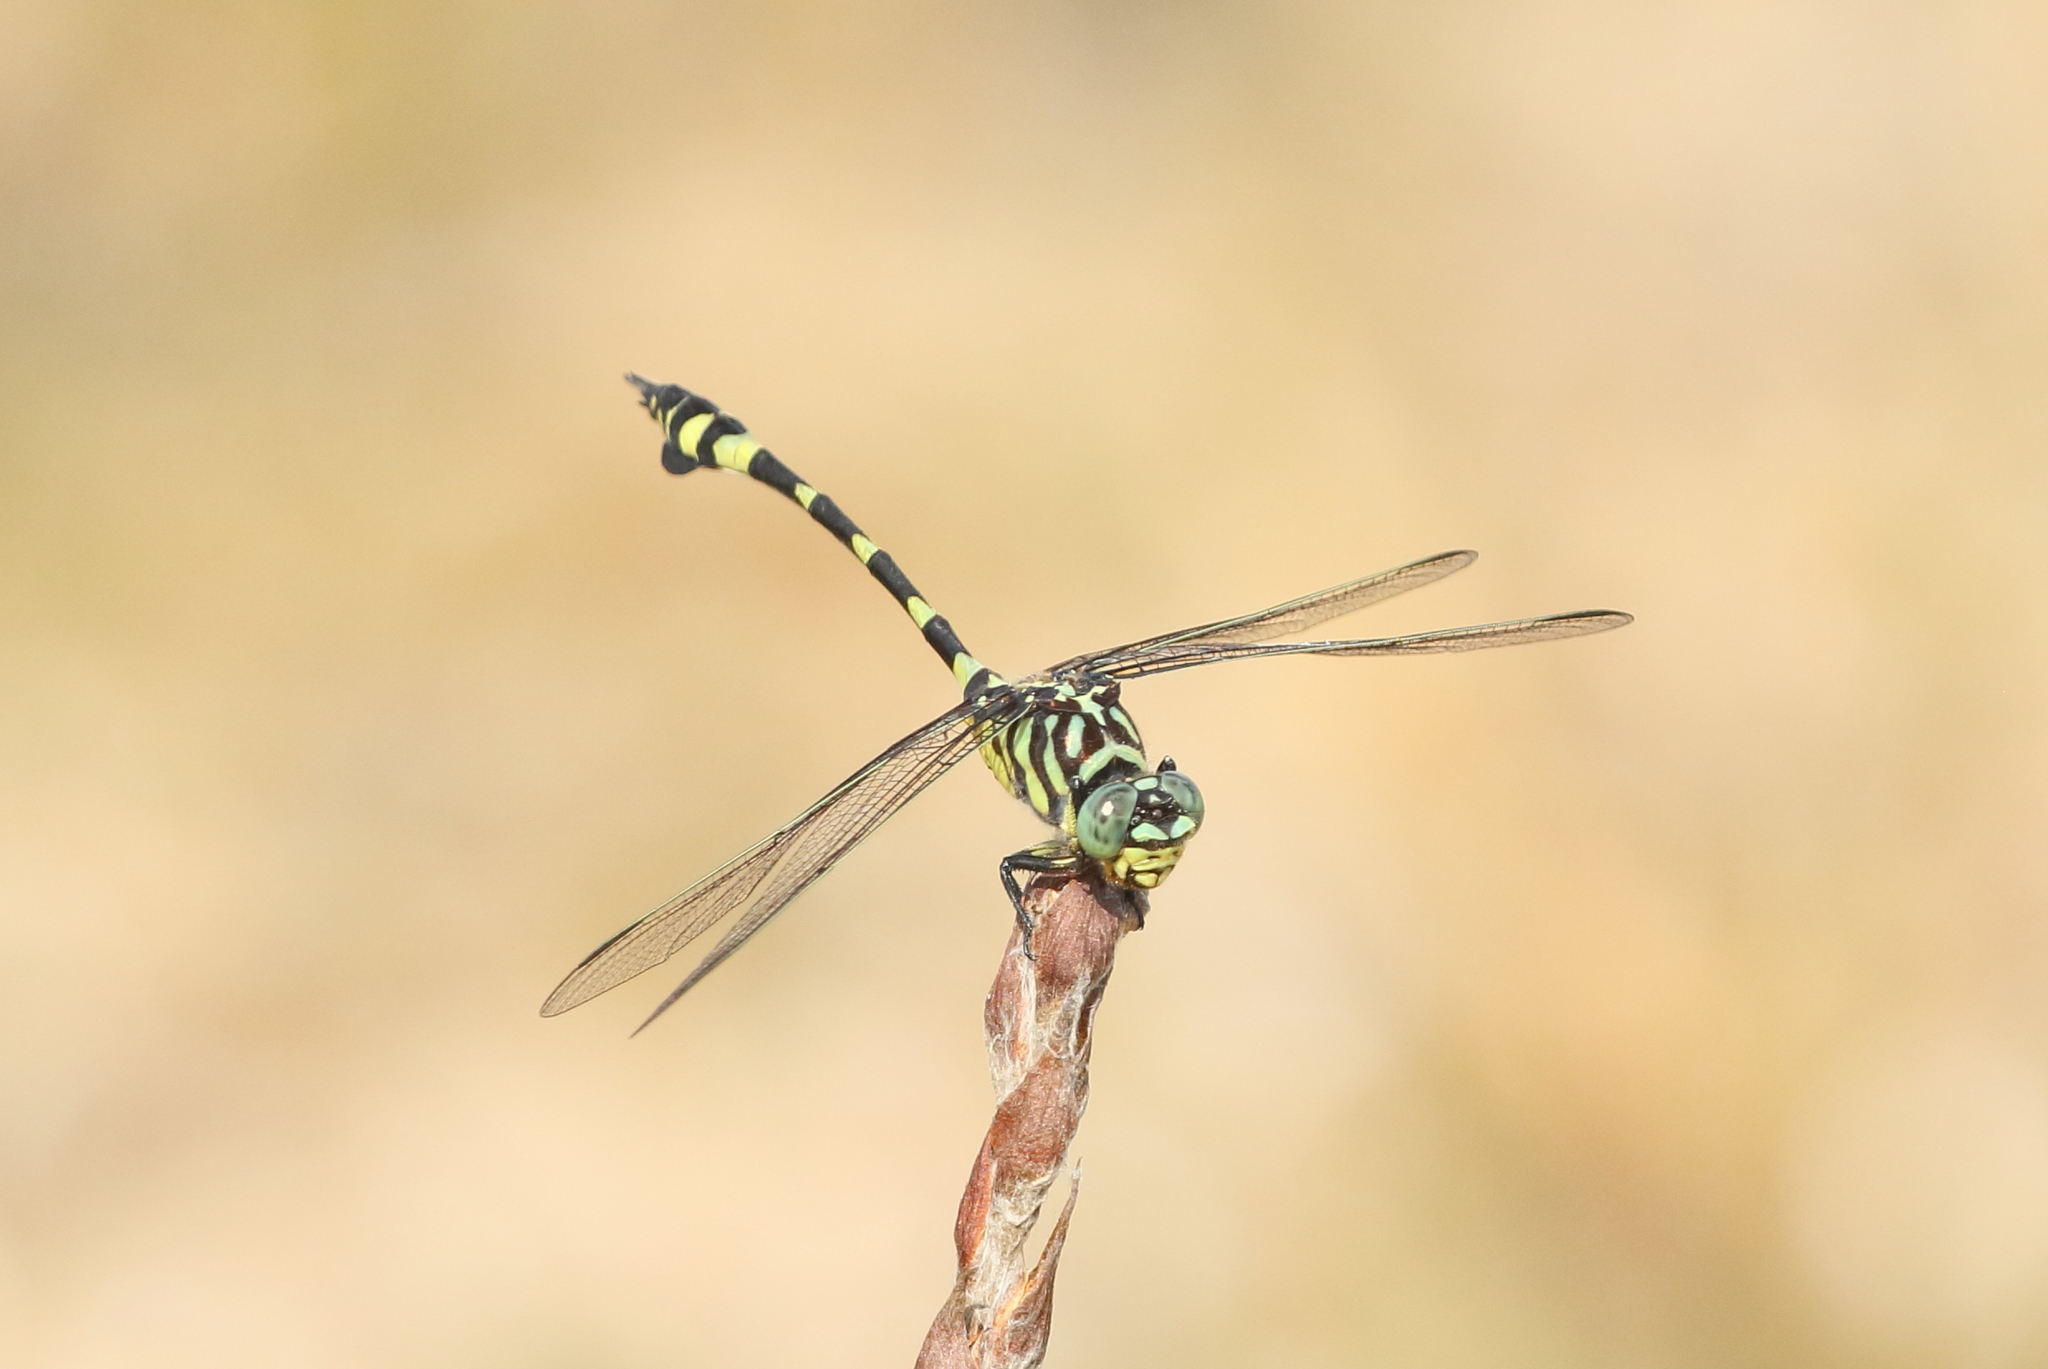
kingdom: Animalia
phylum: Arthropoda
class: Insecta
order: Odonata
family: Gomphidae
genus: Ictinogomphus
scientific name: Ictinogomphus australis
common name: Australian tiger
